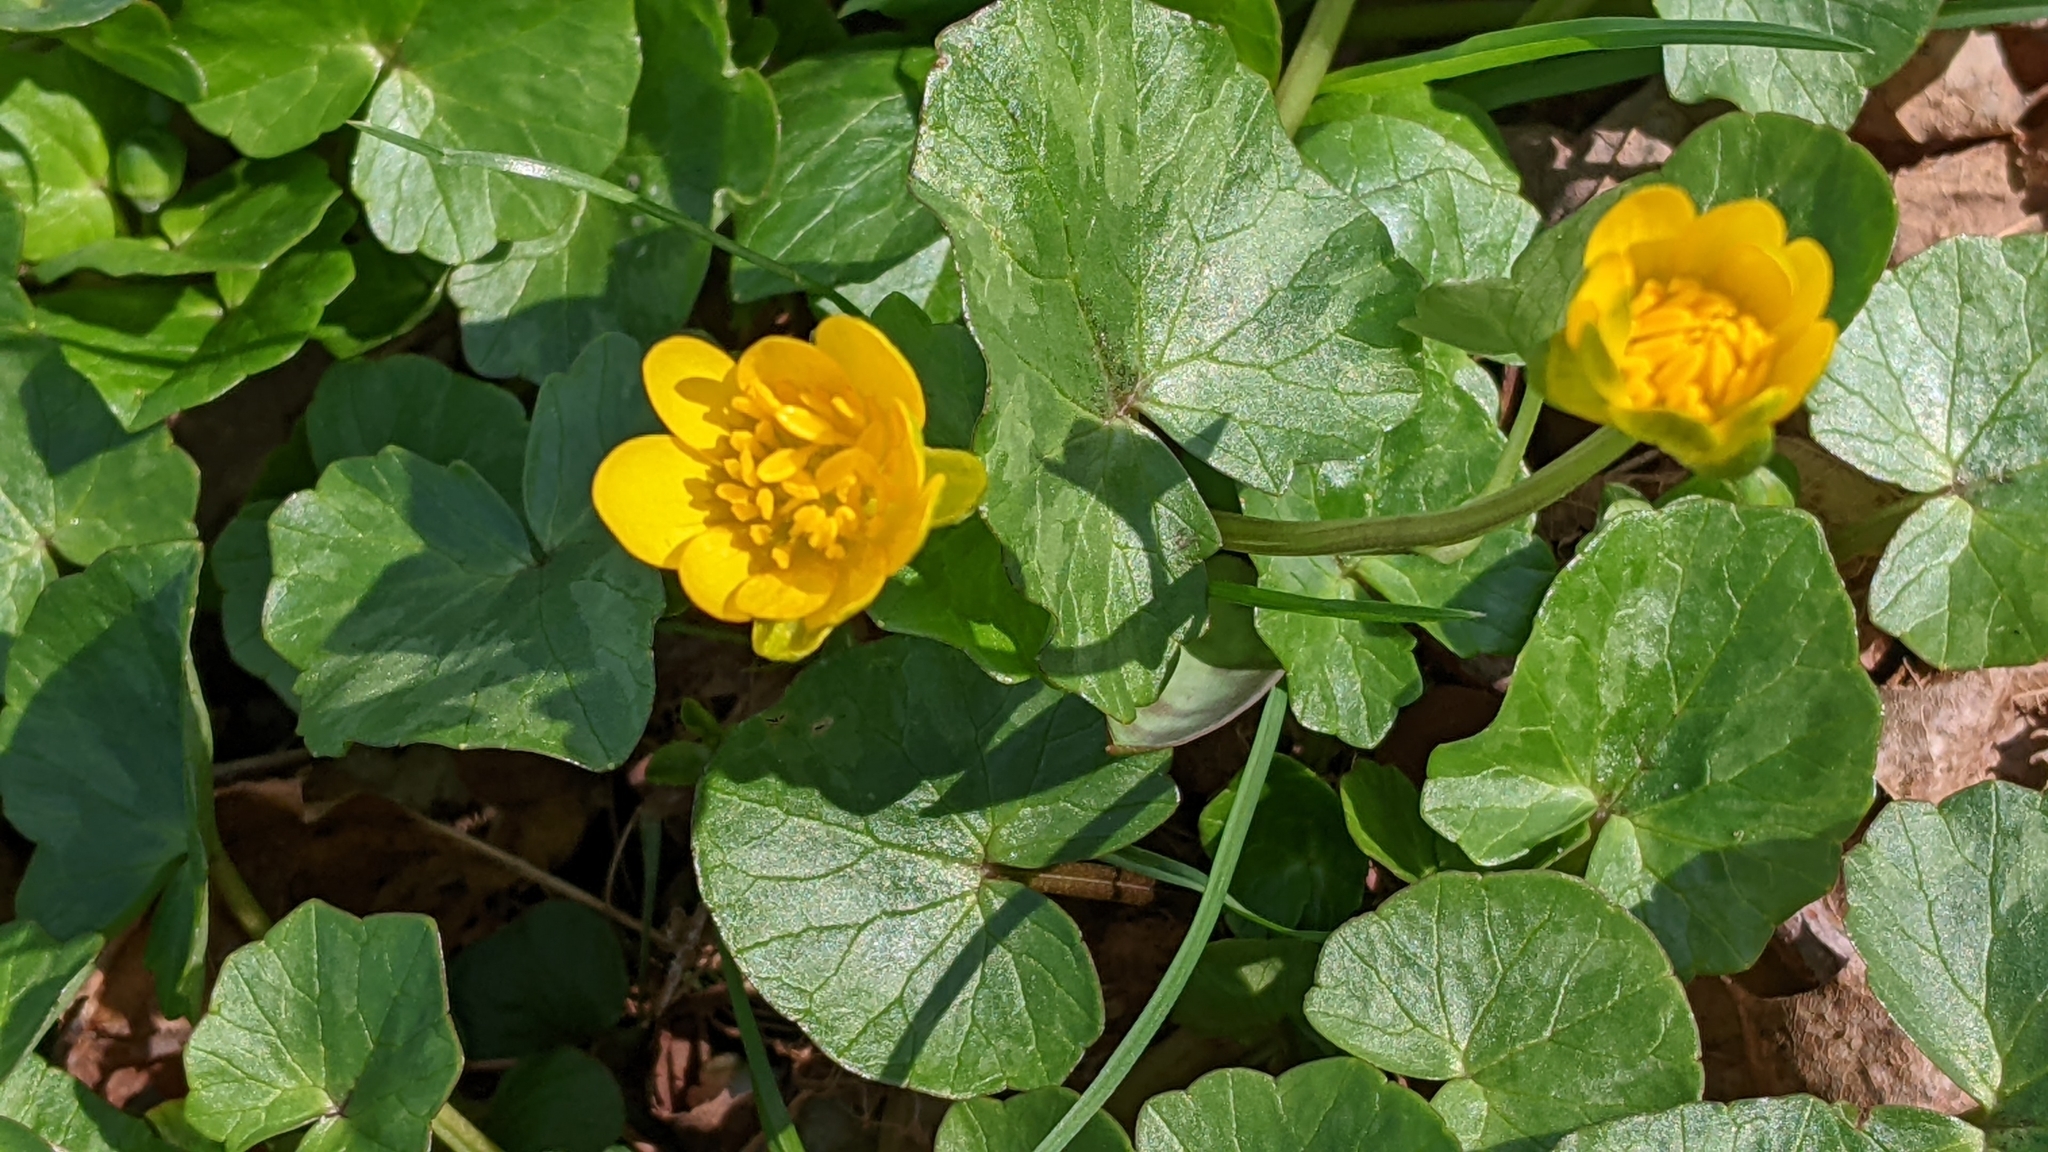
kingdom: Plantae
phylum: Tracheophyta
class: Magnoliopsida
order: Ranunculales
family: Ranunculaceae
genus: Ficaria
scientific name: Ficaria verna
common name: Lesser celandine
